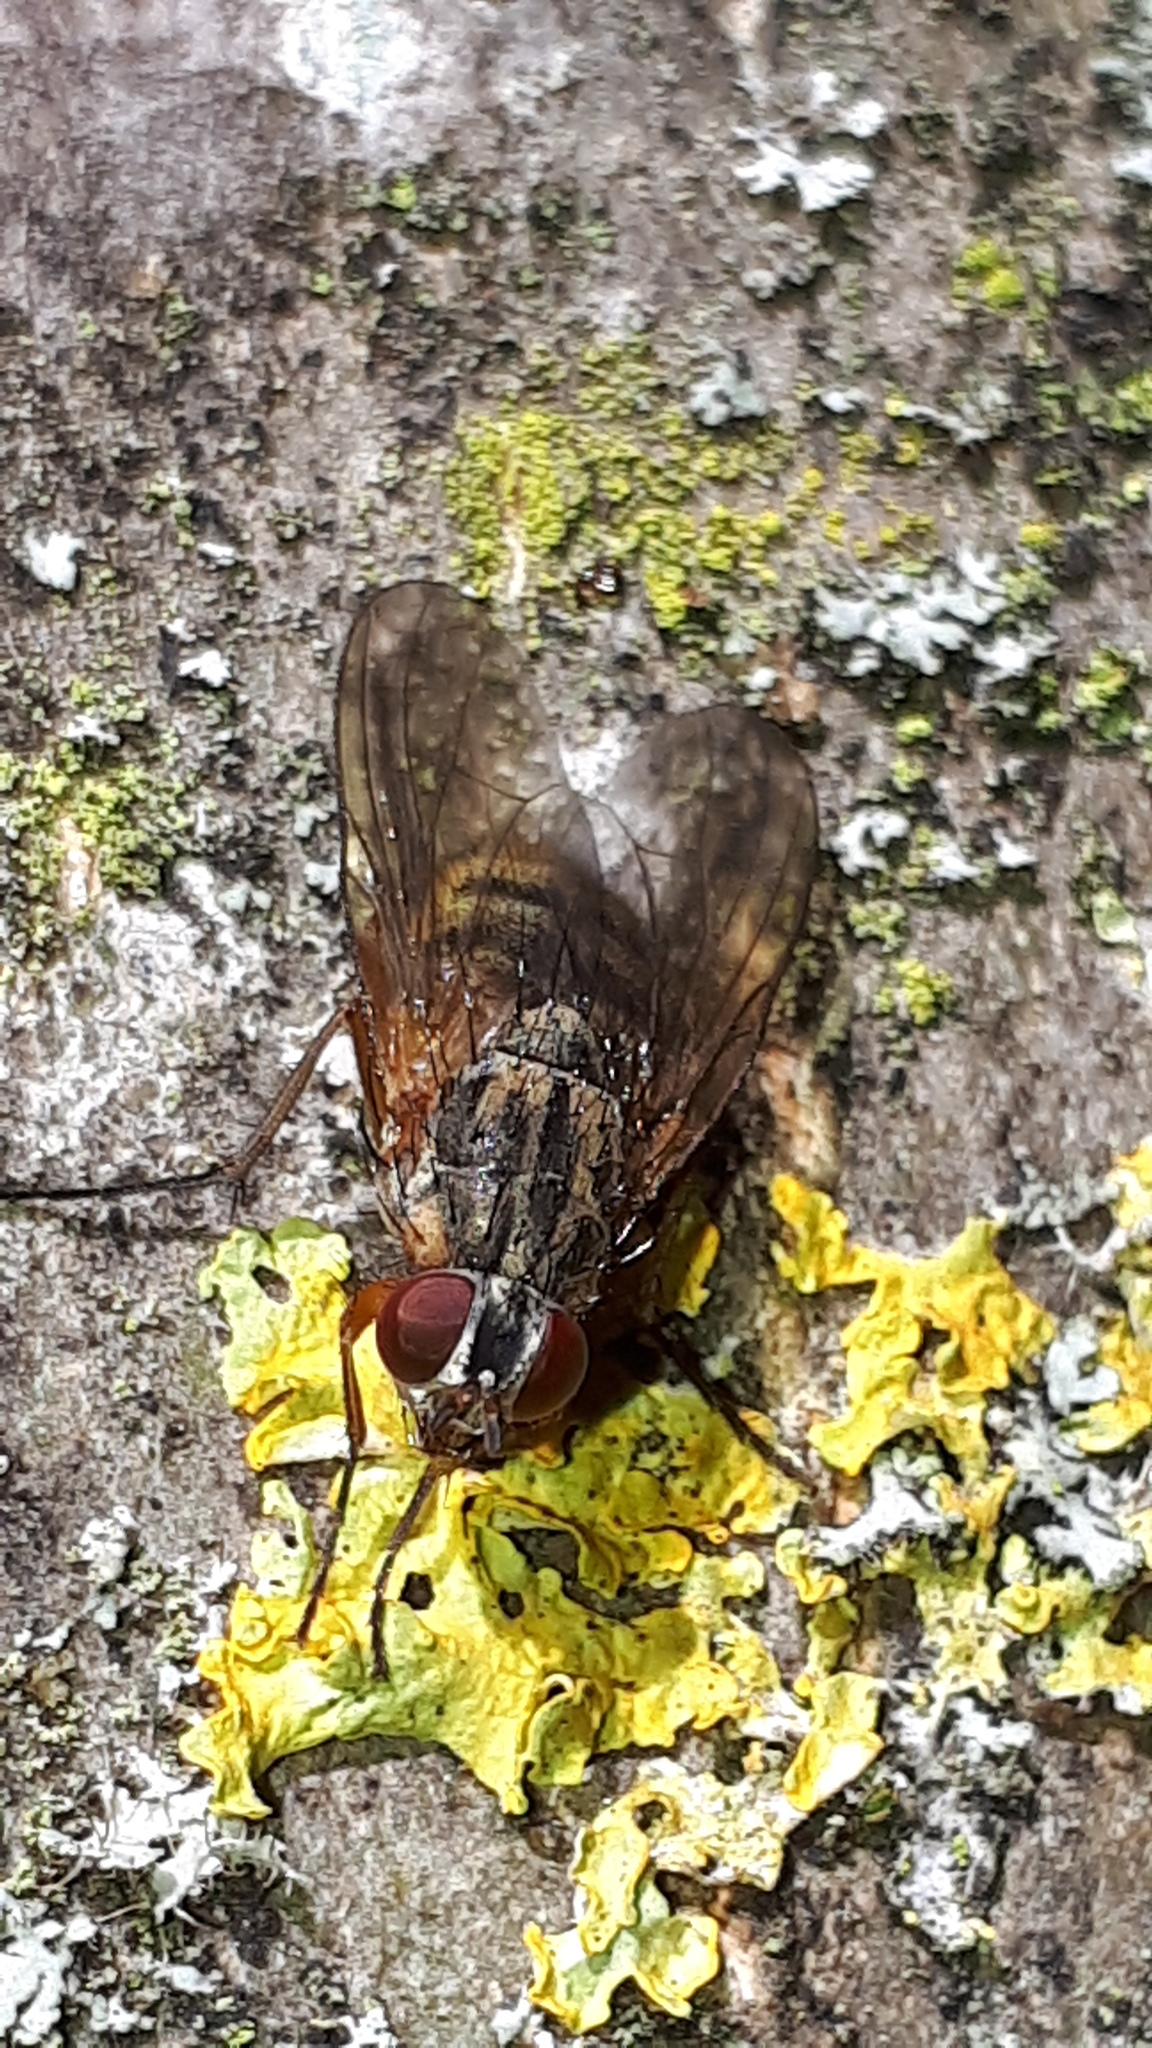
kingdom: Animalia
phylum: Arthropoda
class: Insecta
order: Diptera
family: Muscidae
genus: Thricops
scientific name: Thricops simplex
